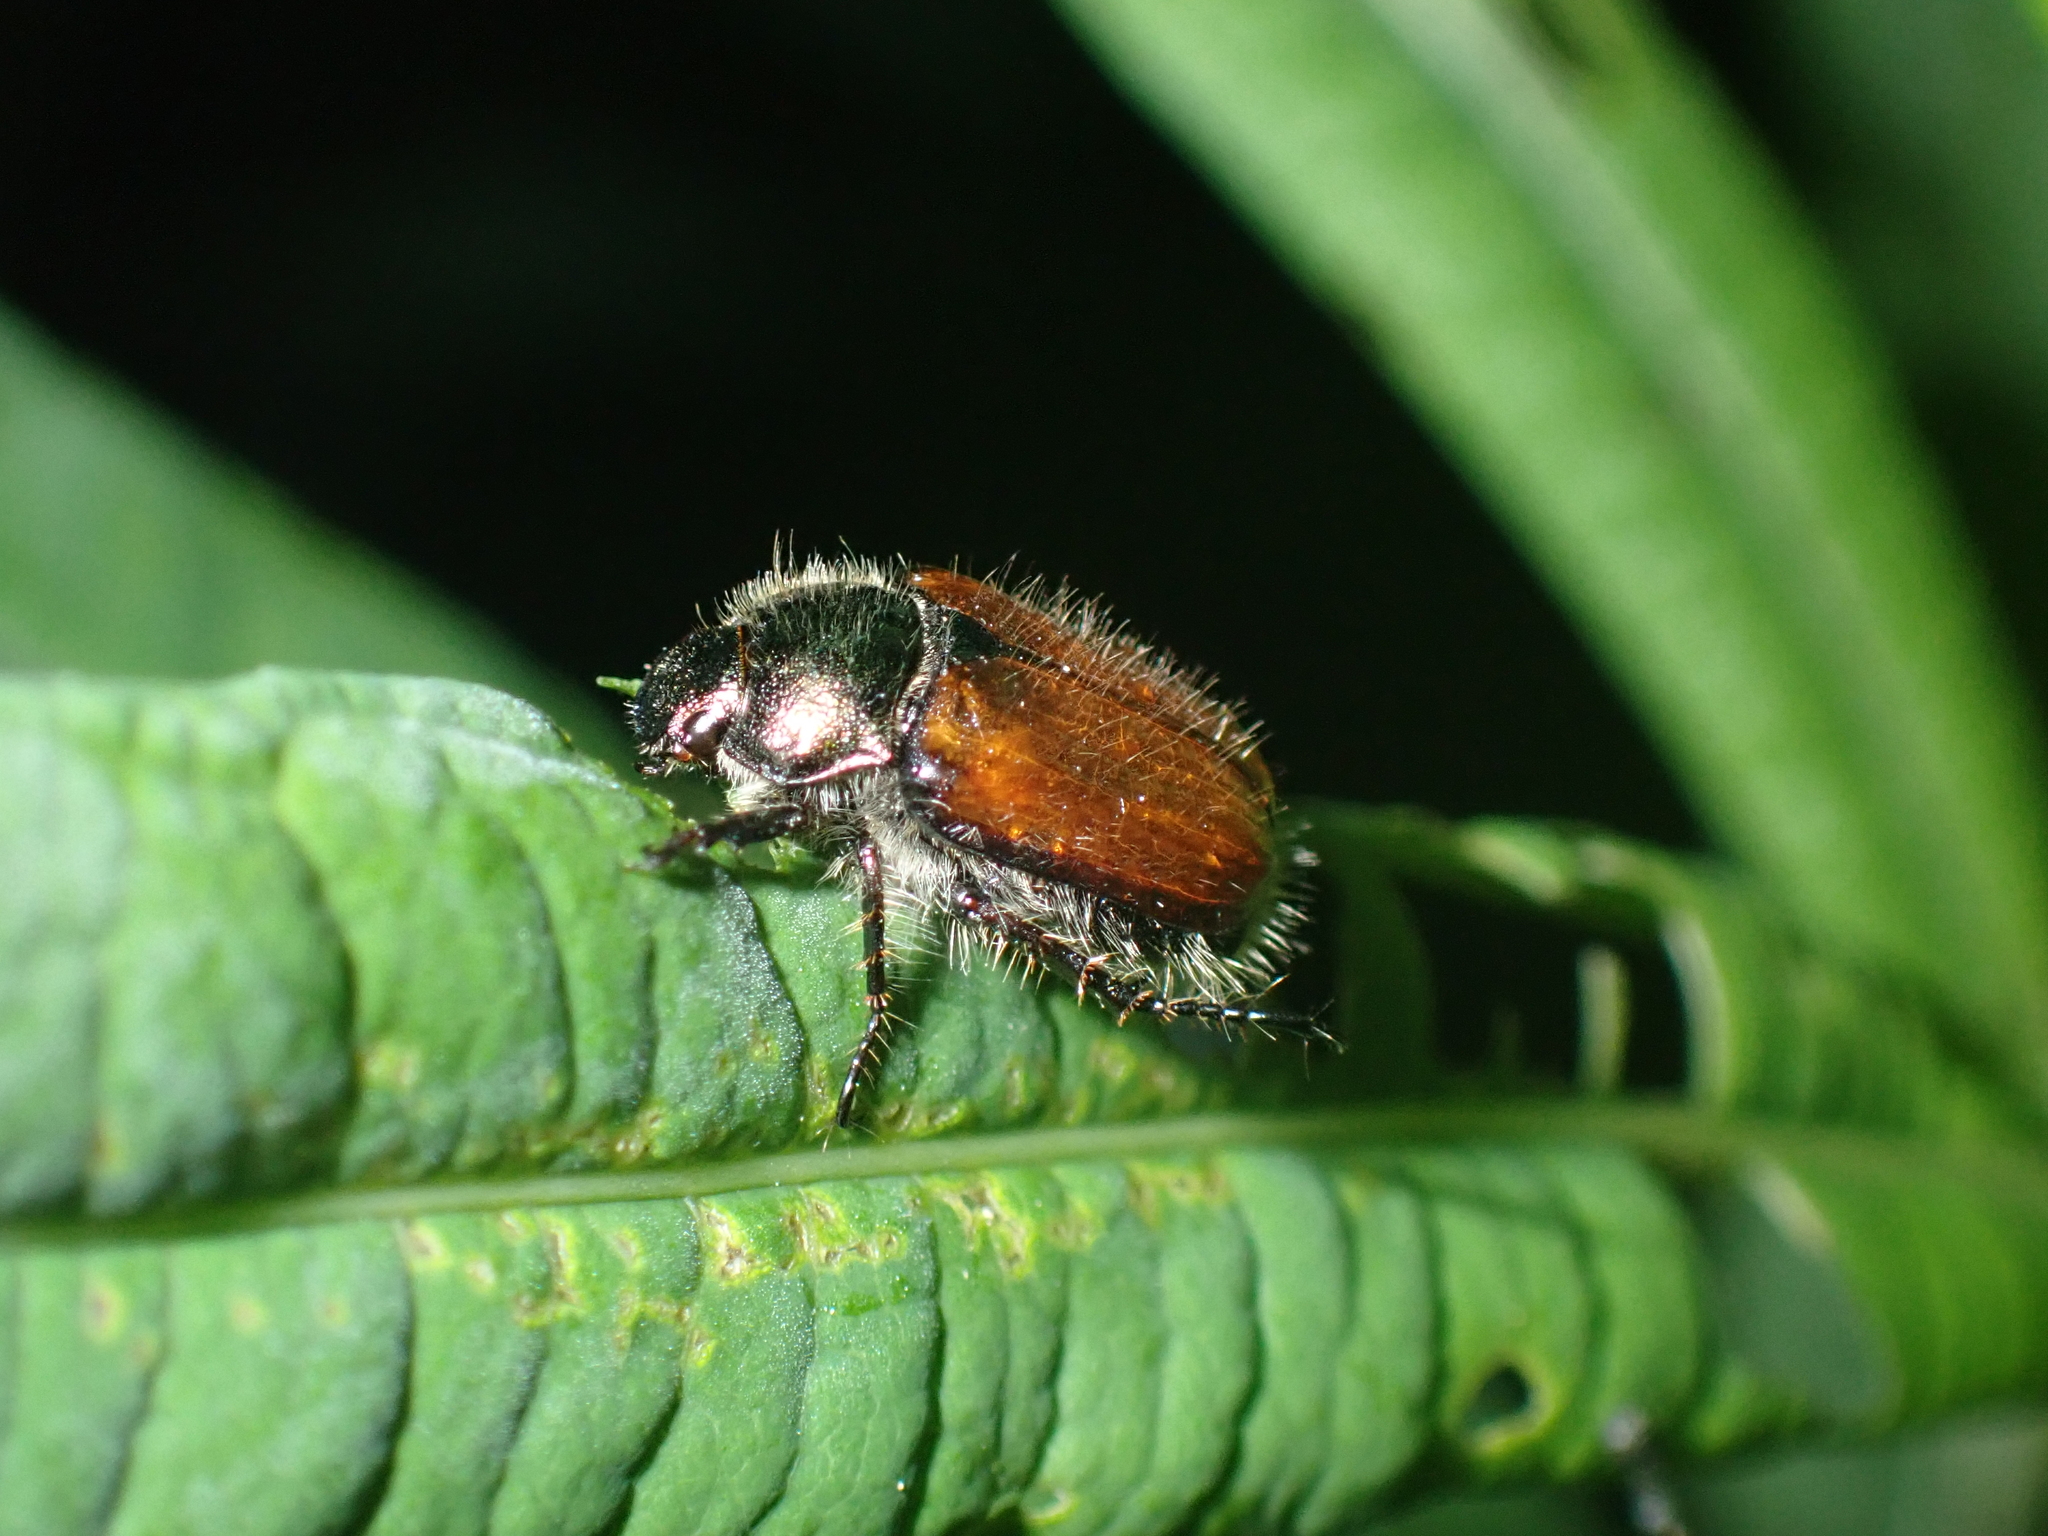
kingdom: Animalia
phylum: Arthropoda
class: Insecta
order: Coleoptera
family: Scarabaeidae
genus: Phyllopertha
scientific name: Phyllopertha horticola
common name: Garden chafer
